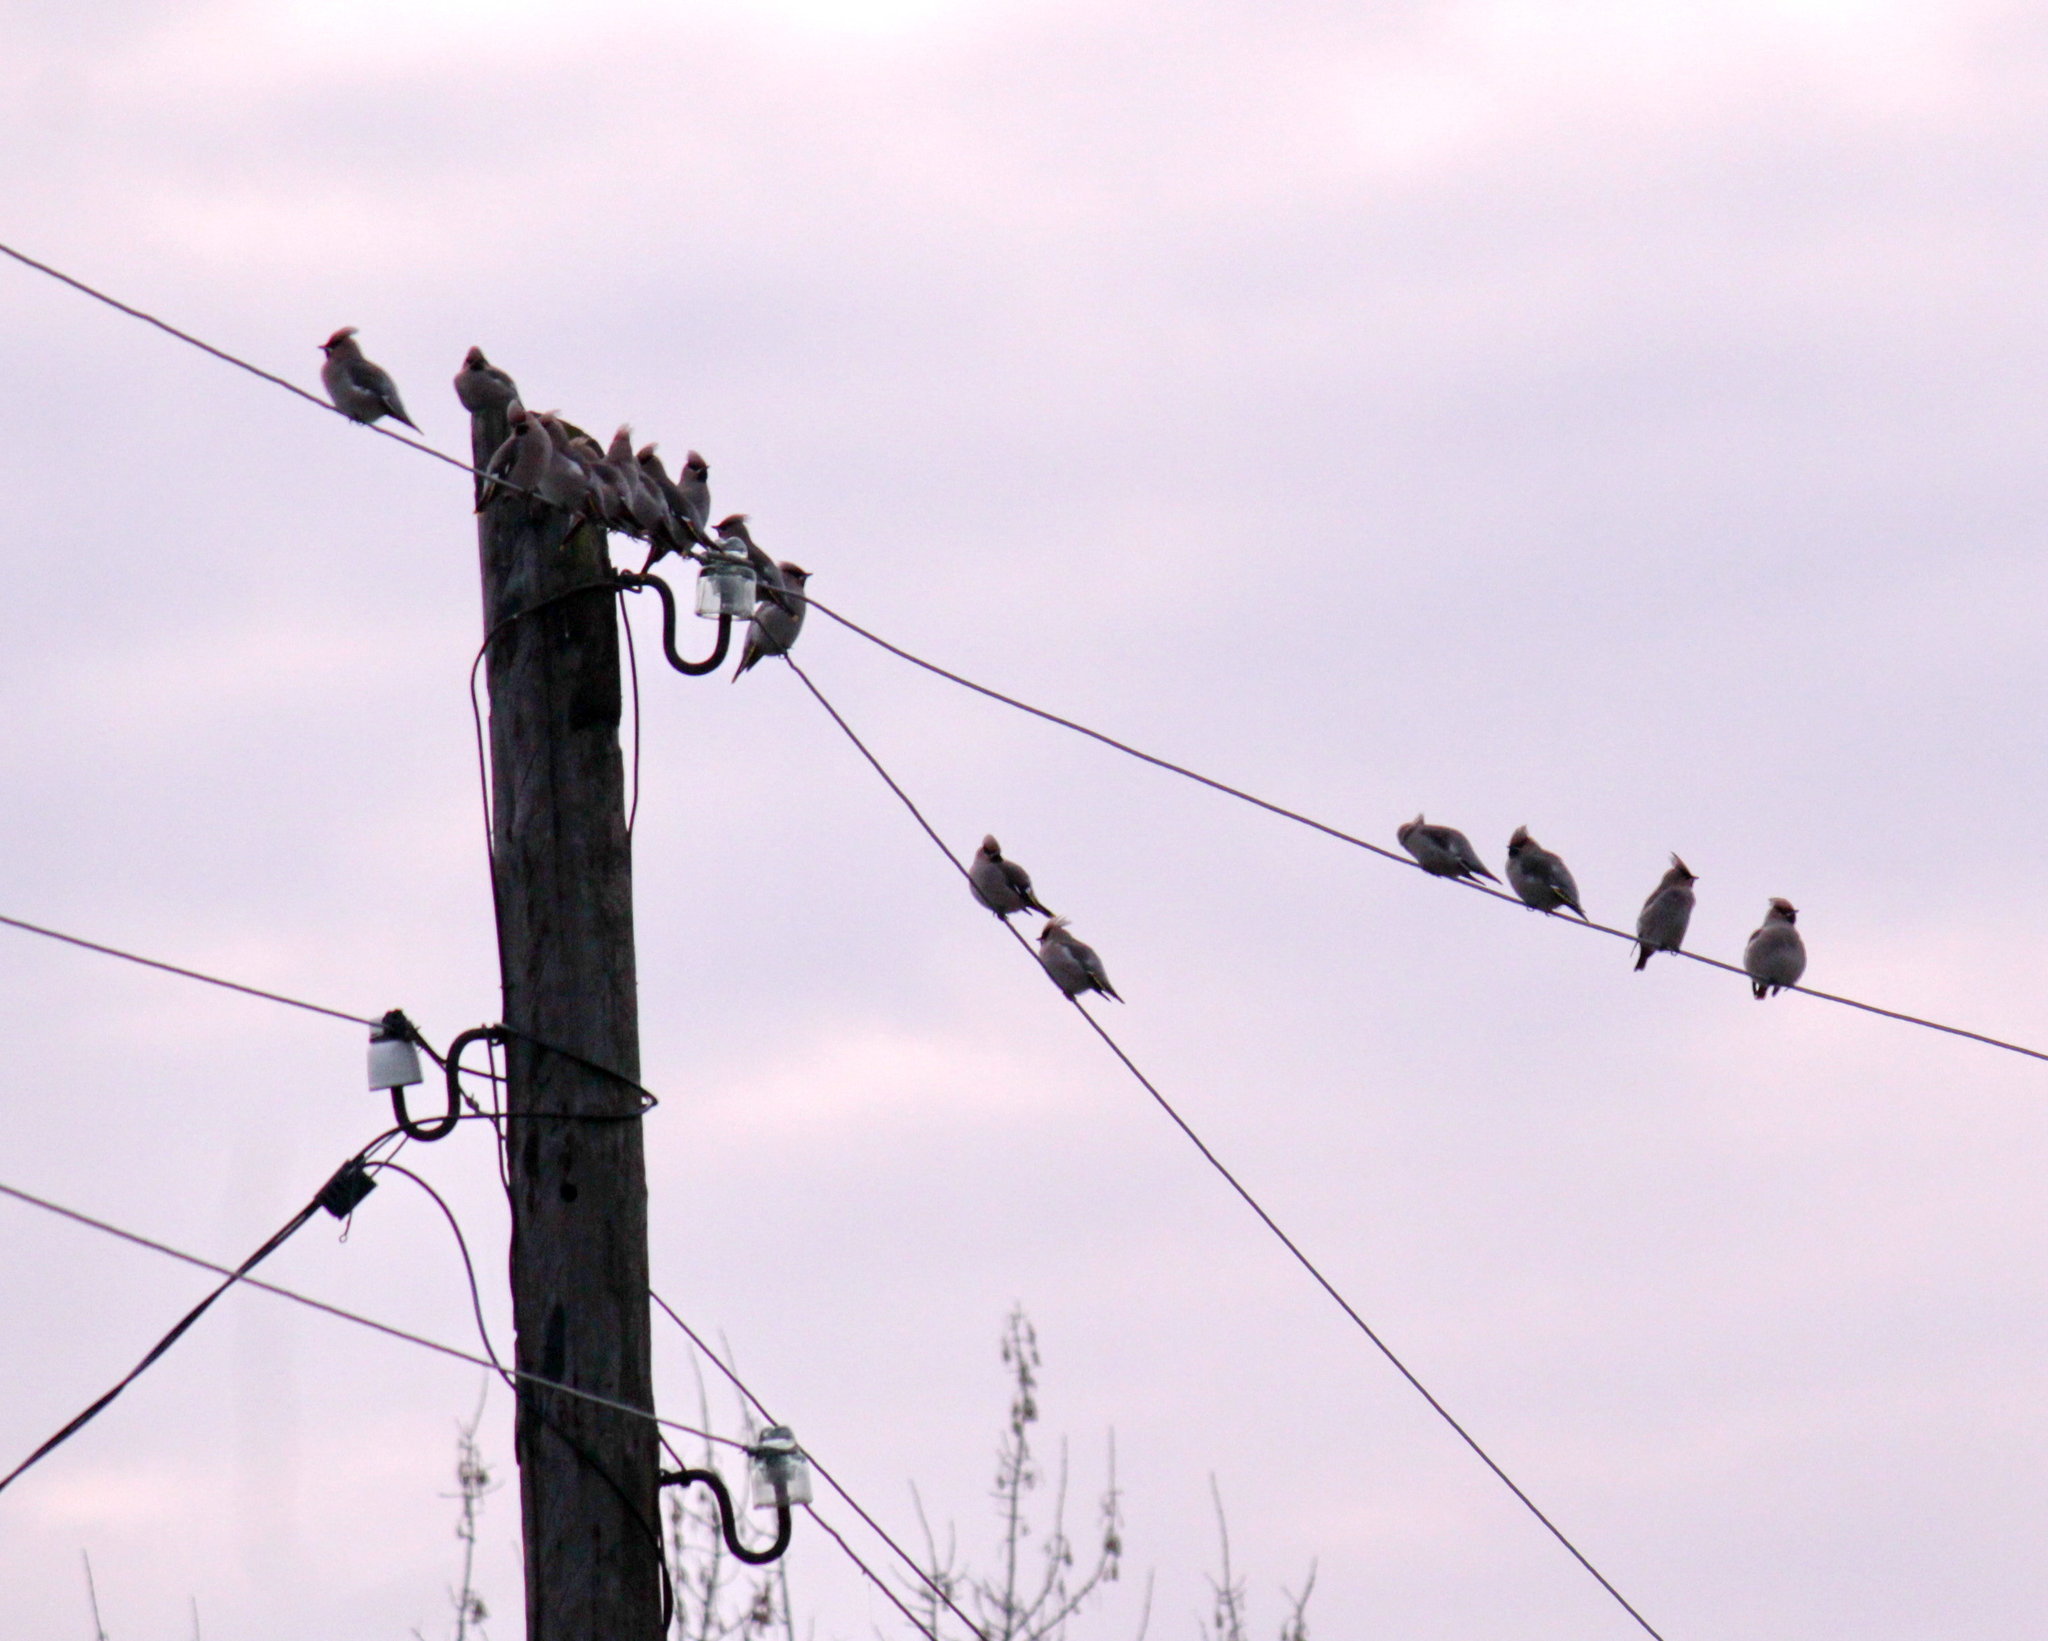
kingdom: Animalia
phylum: Chordata
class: Aves
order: Passeriformes
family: Bombycillidae
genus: Bombycilla
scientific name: Bombycilla garrulus
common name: Bohemian waxwing
